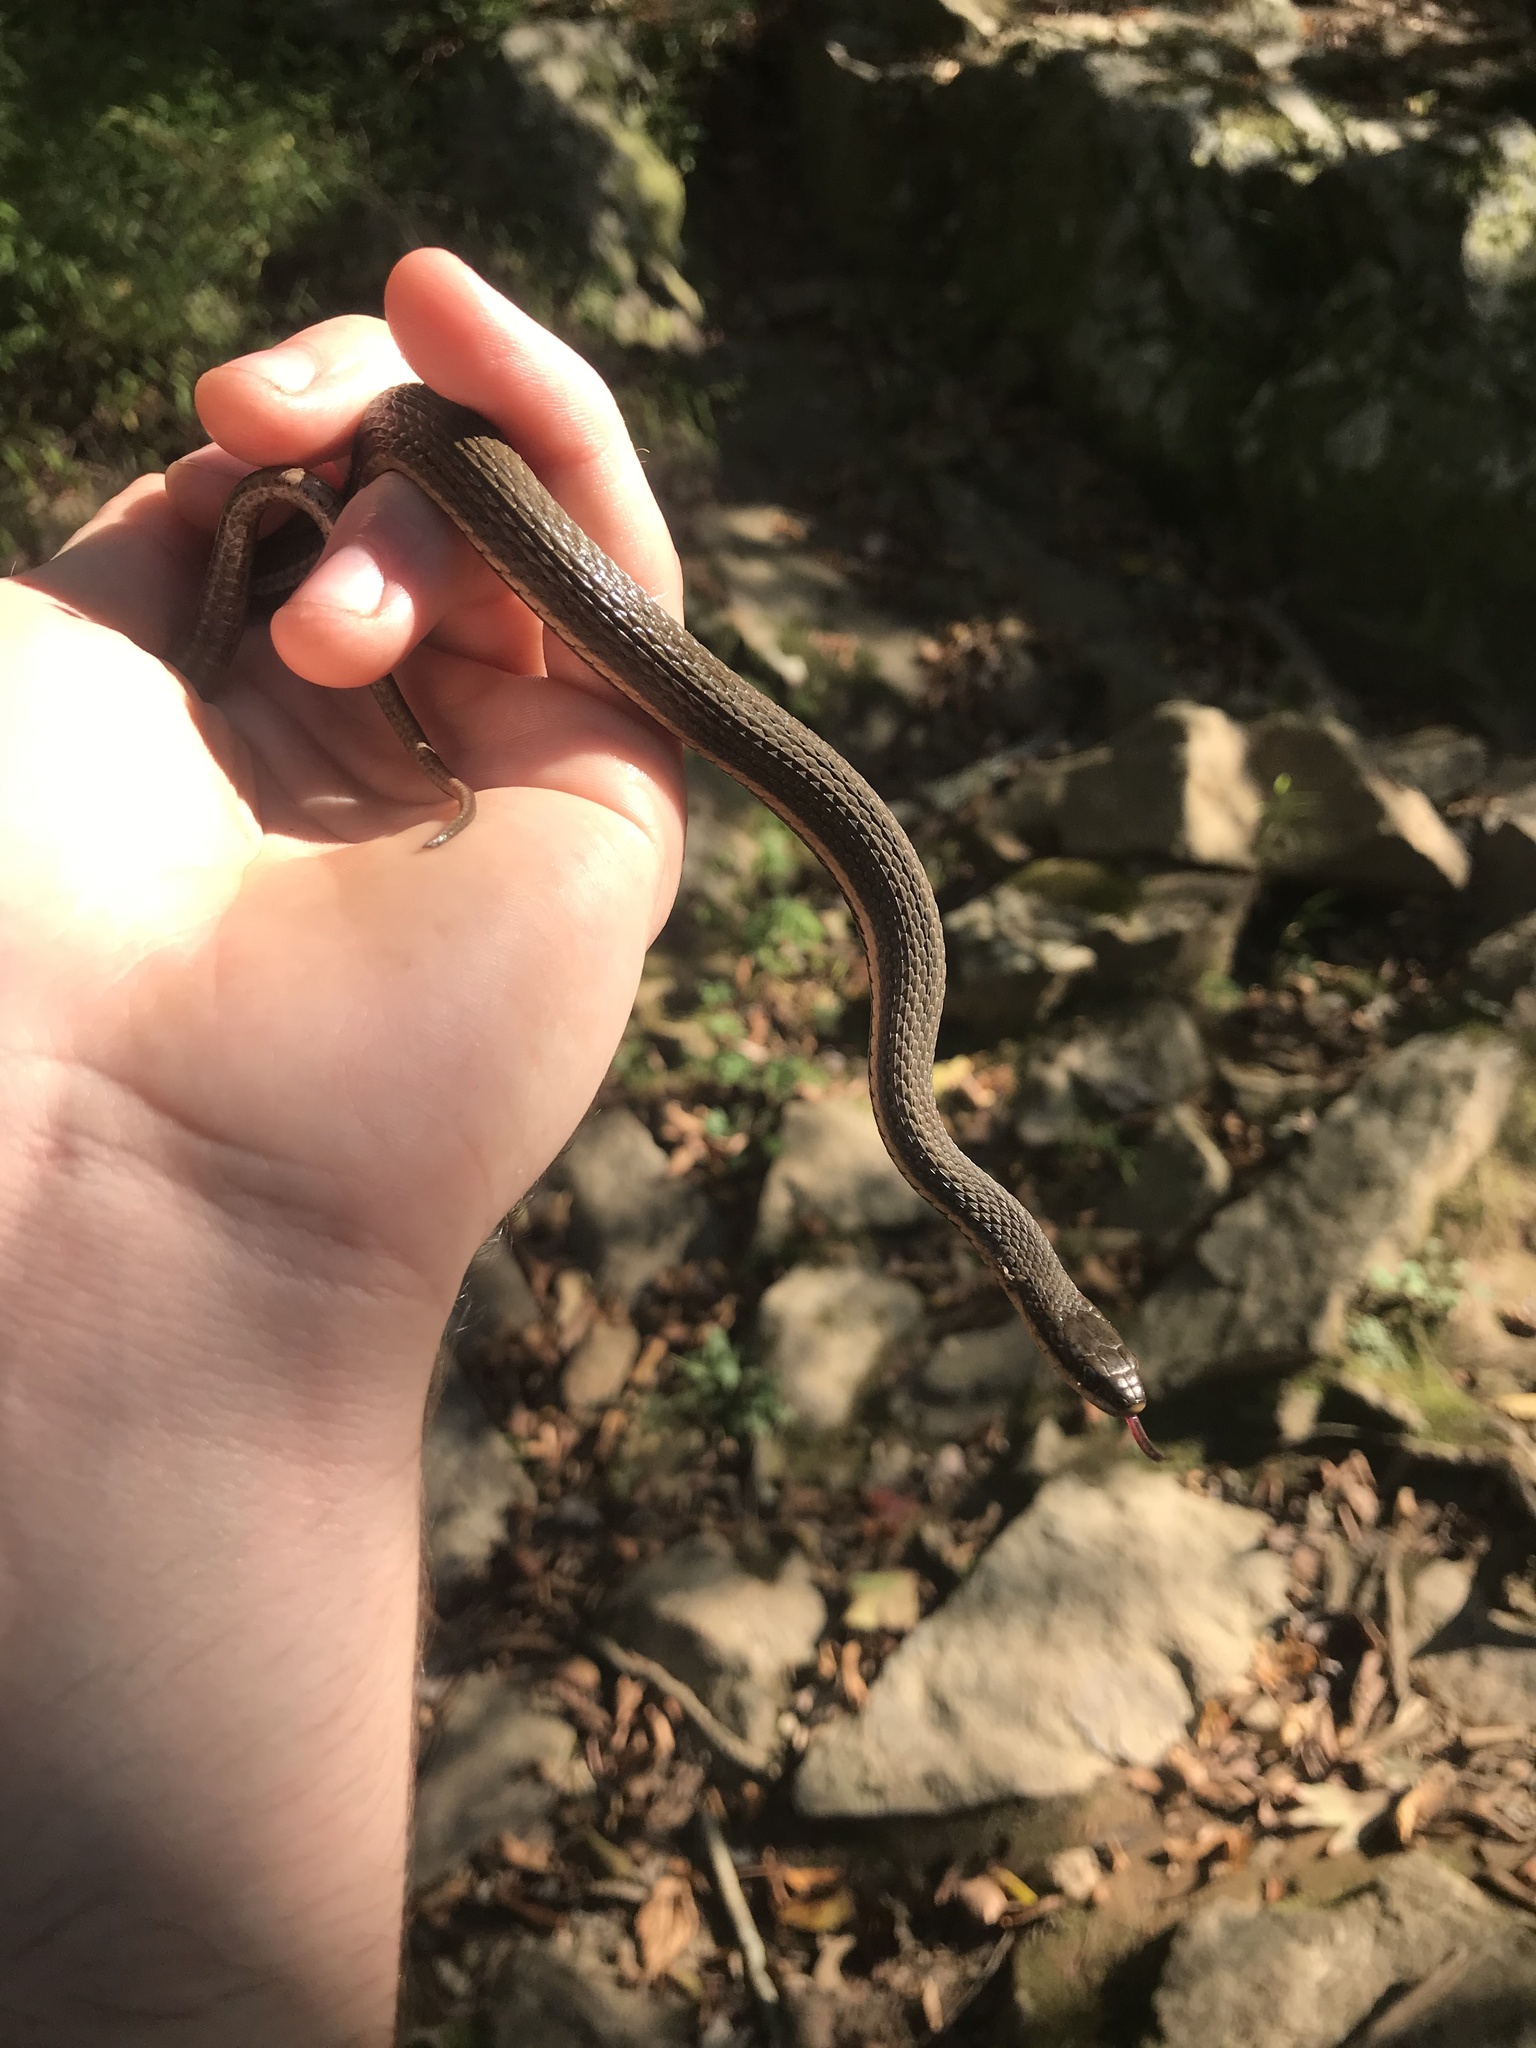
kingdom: Animalia
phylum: Chordata
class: Squamata
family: Colubridae
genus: Regina
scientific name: Regina septemvittata
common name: Queen snake
